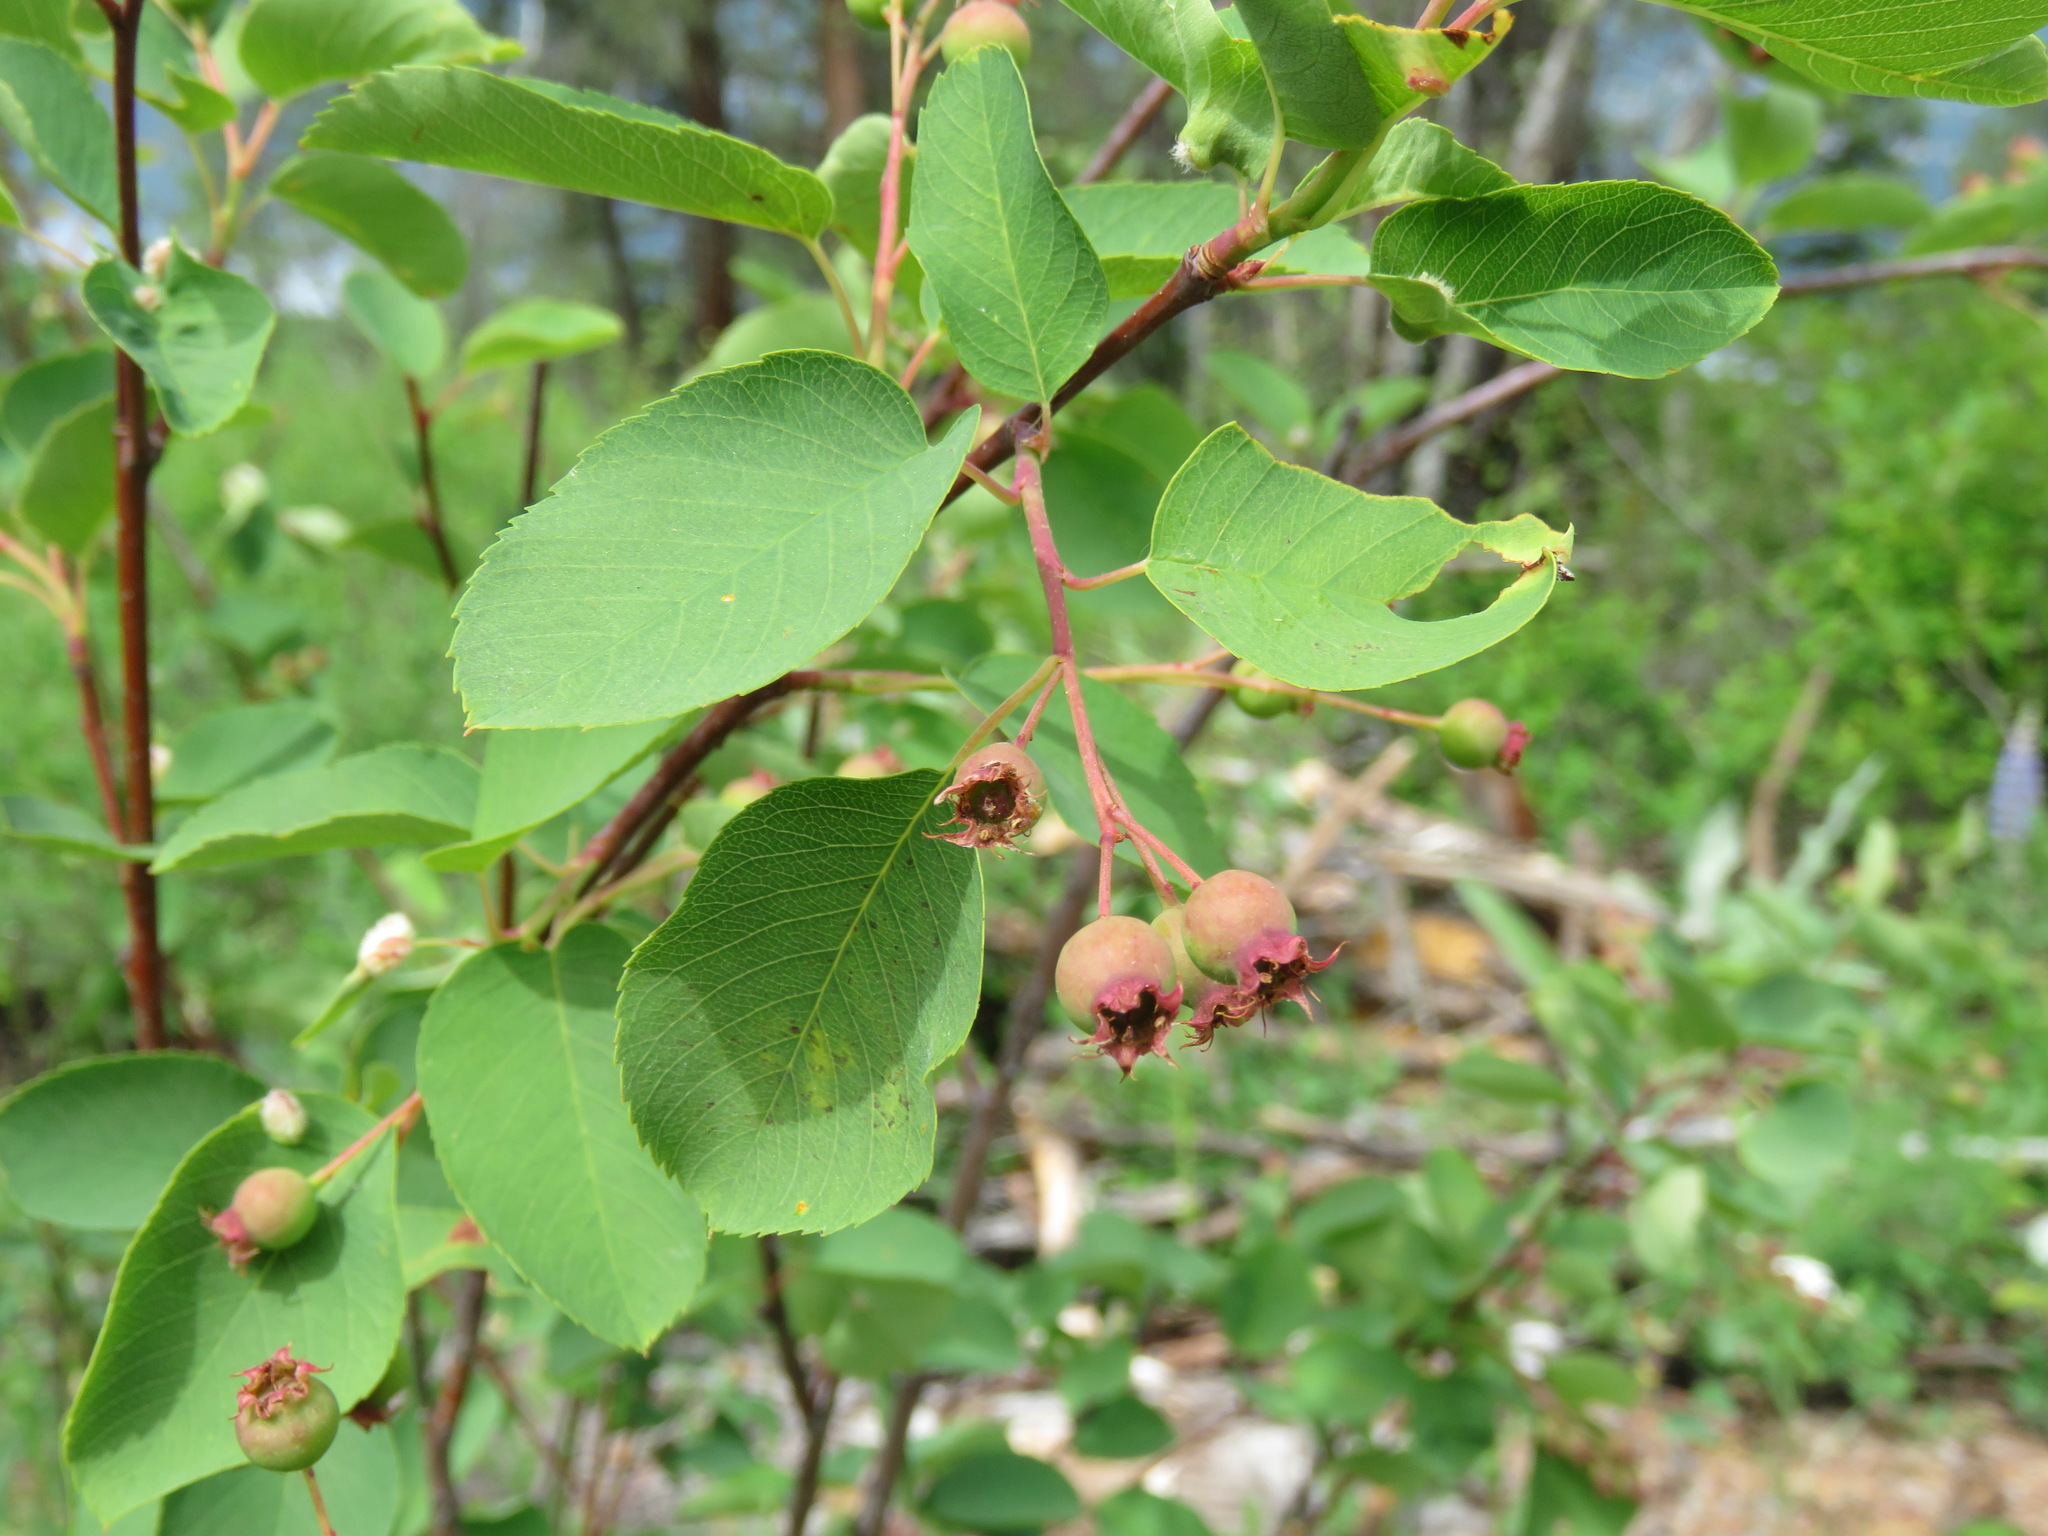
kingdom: Plantae
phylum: Tracheophyta
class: Magnoliopsida
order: Rosales
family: Rosaceae
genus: Amelanchier
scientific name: Amelanchier alnifolia
